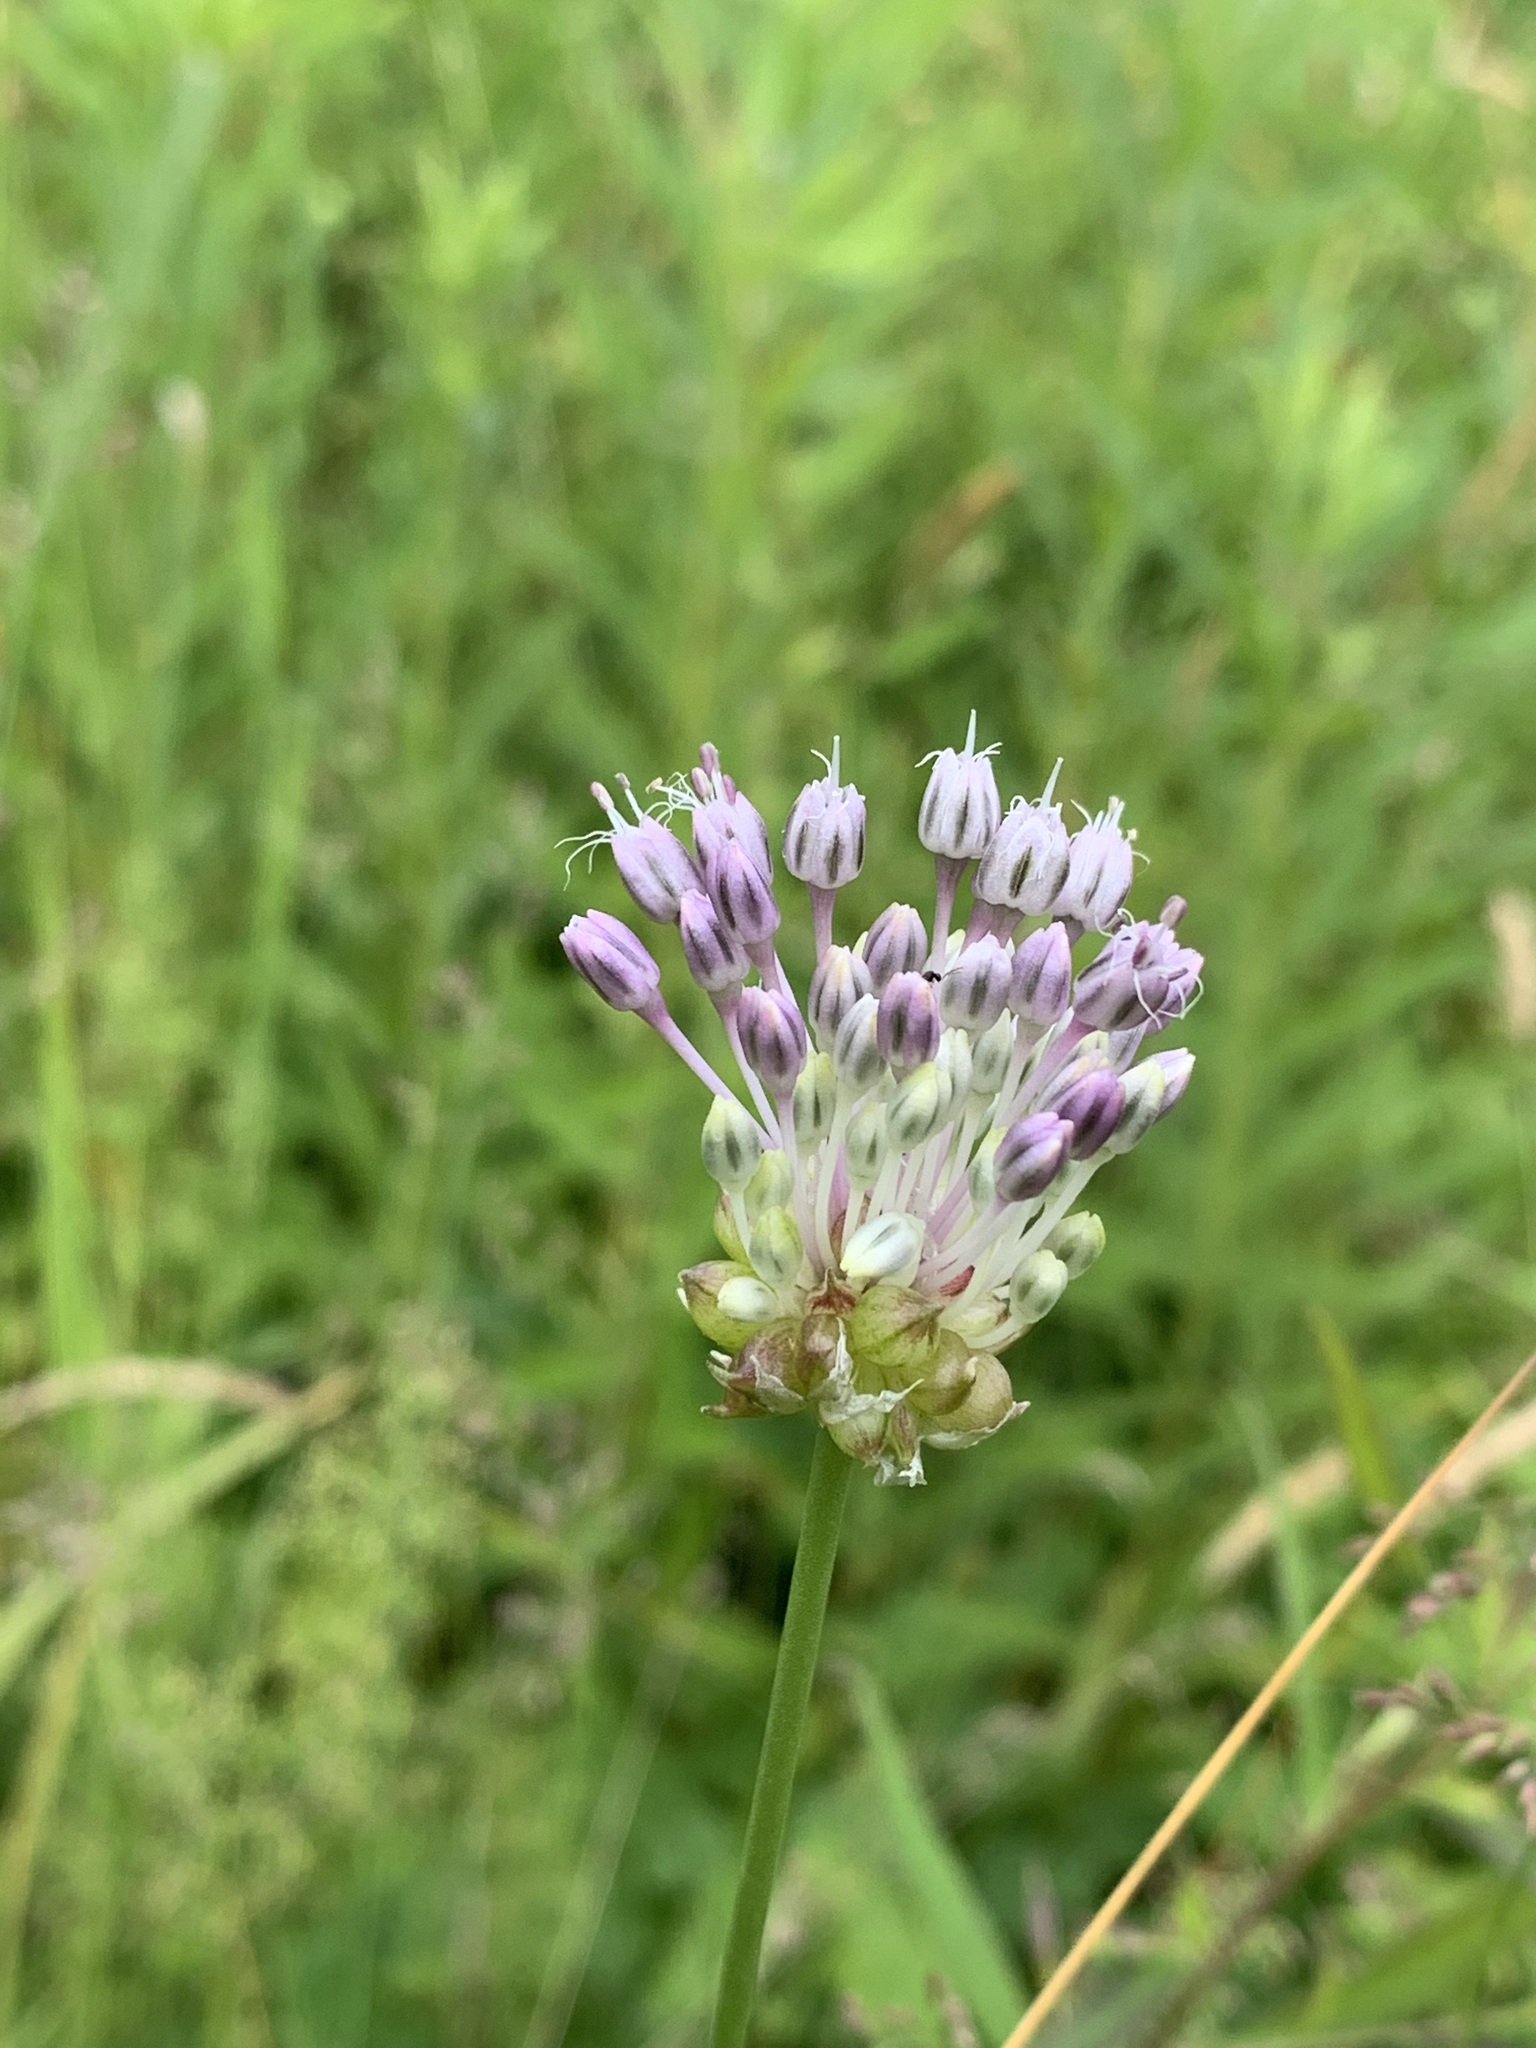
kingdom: Plantae
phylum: Tracheophyta
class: Liliopsida
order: Asparagales
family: Amaryllidaceae
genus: Allium
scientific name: Allium vineale
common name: Crow garlic
